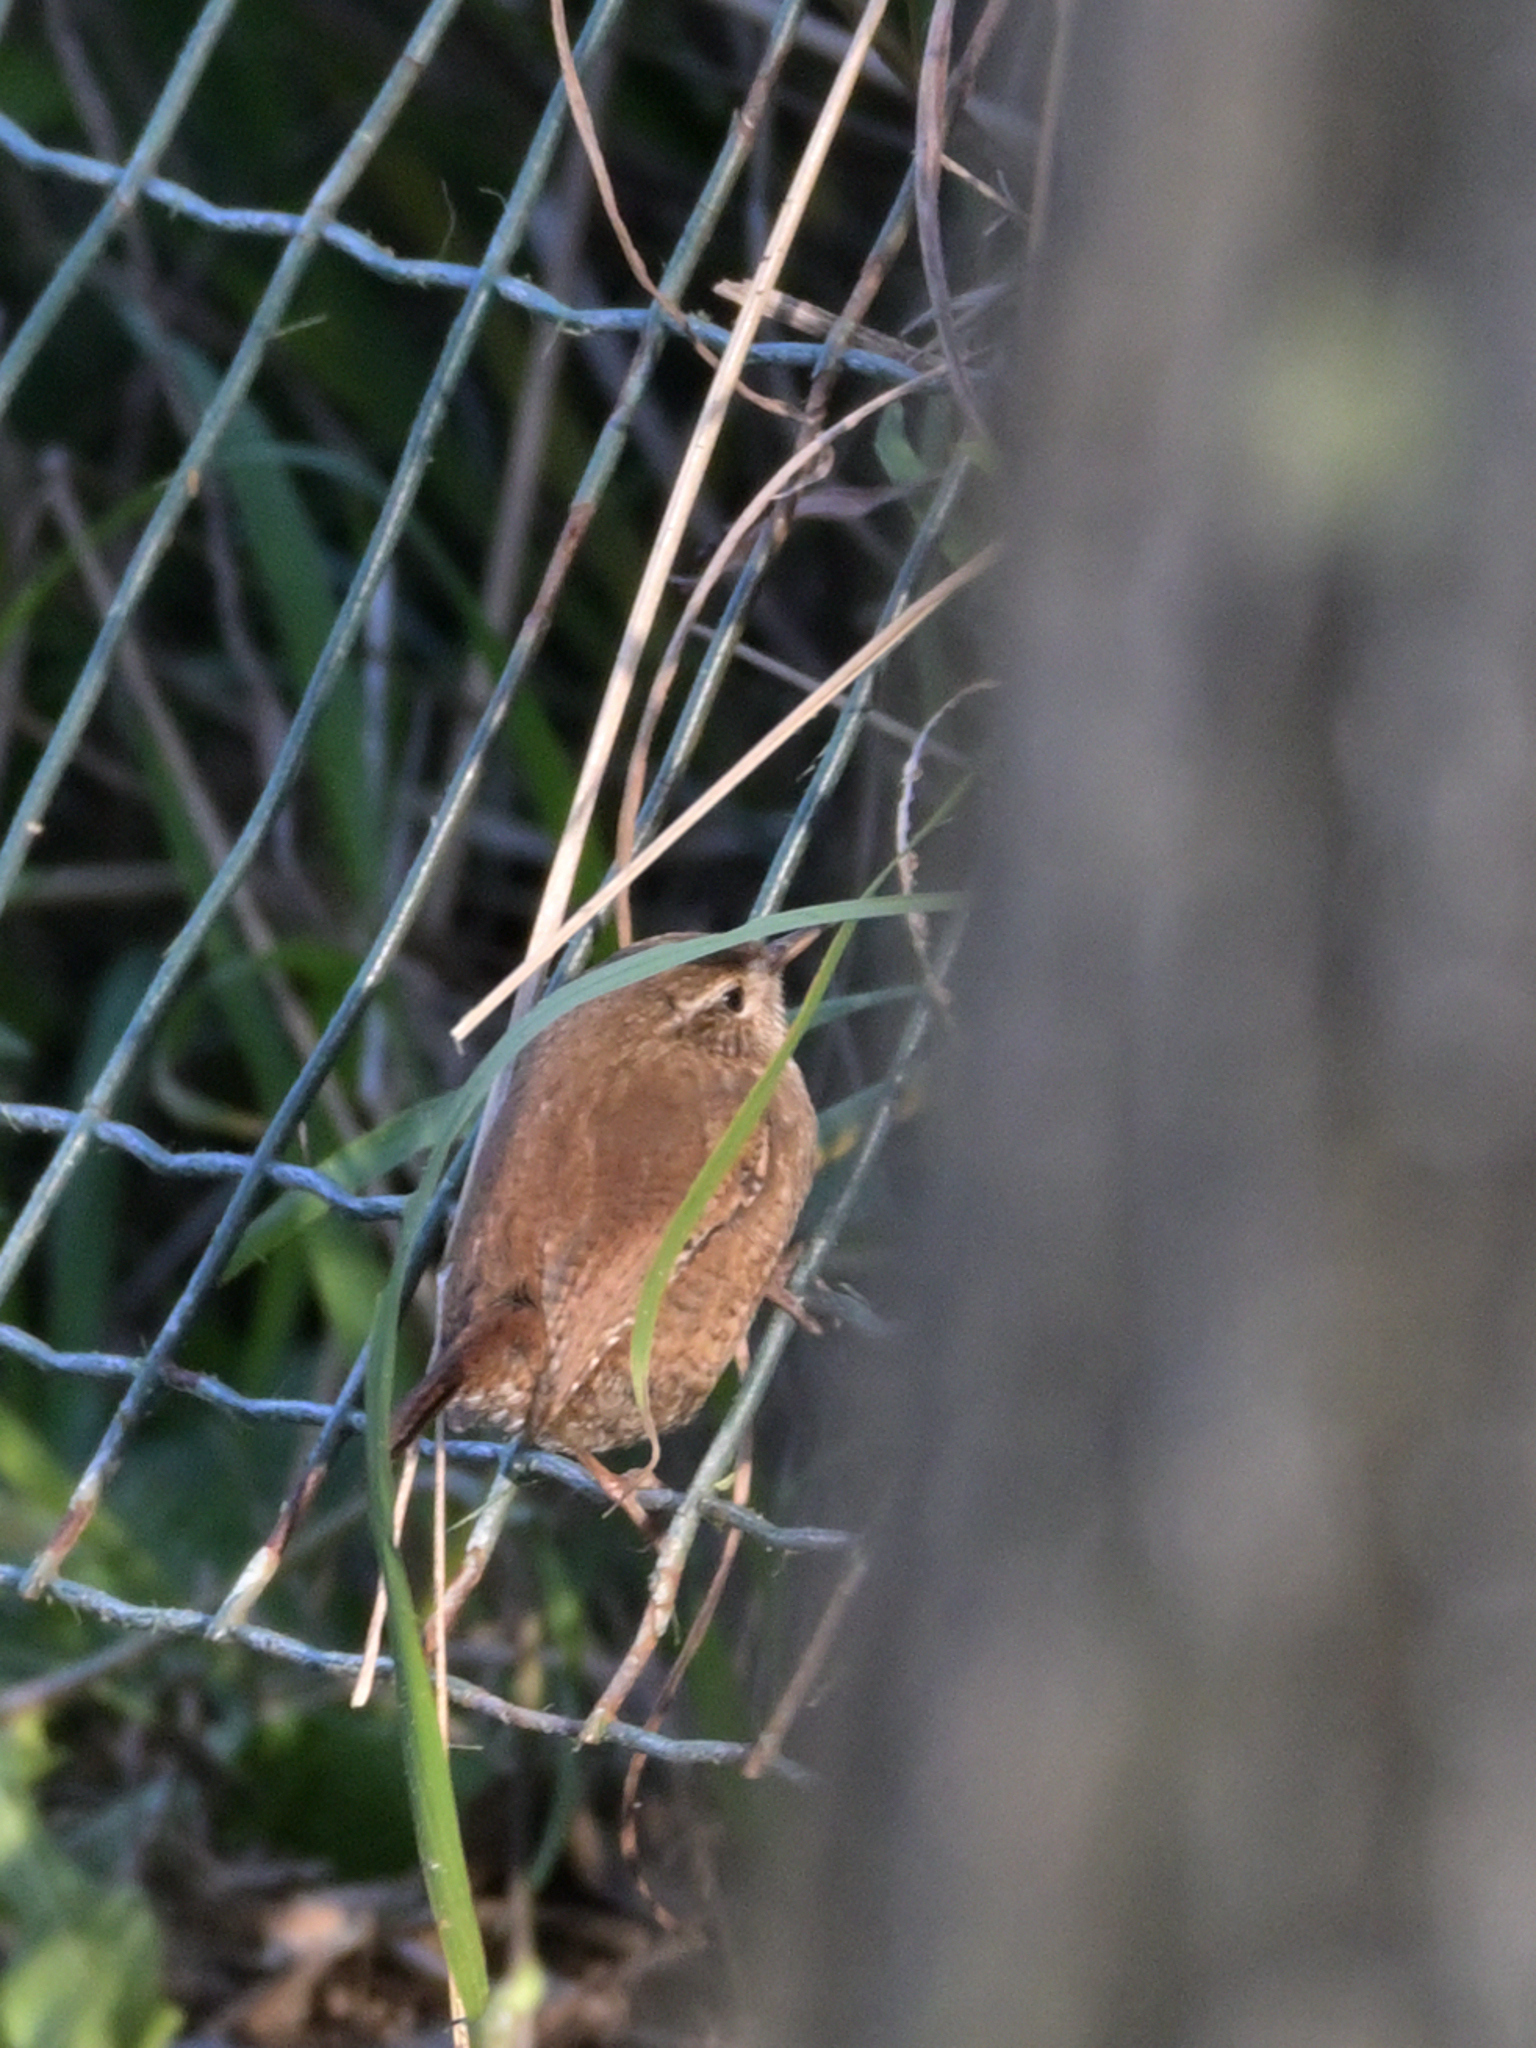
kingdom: Animalia
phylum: Chordata
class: Aves
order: Passeriformes
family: Troglodytidae
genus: Troglodytes
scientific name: Troglodytes troglodytes
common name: Eurasian wren
